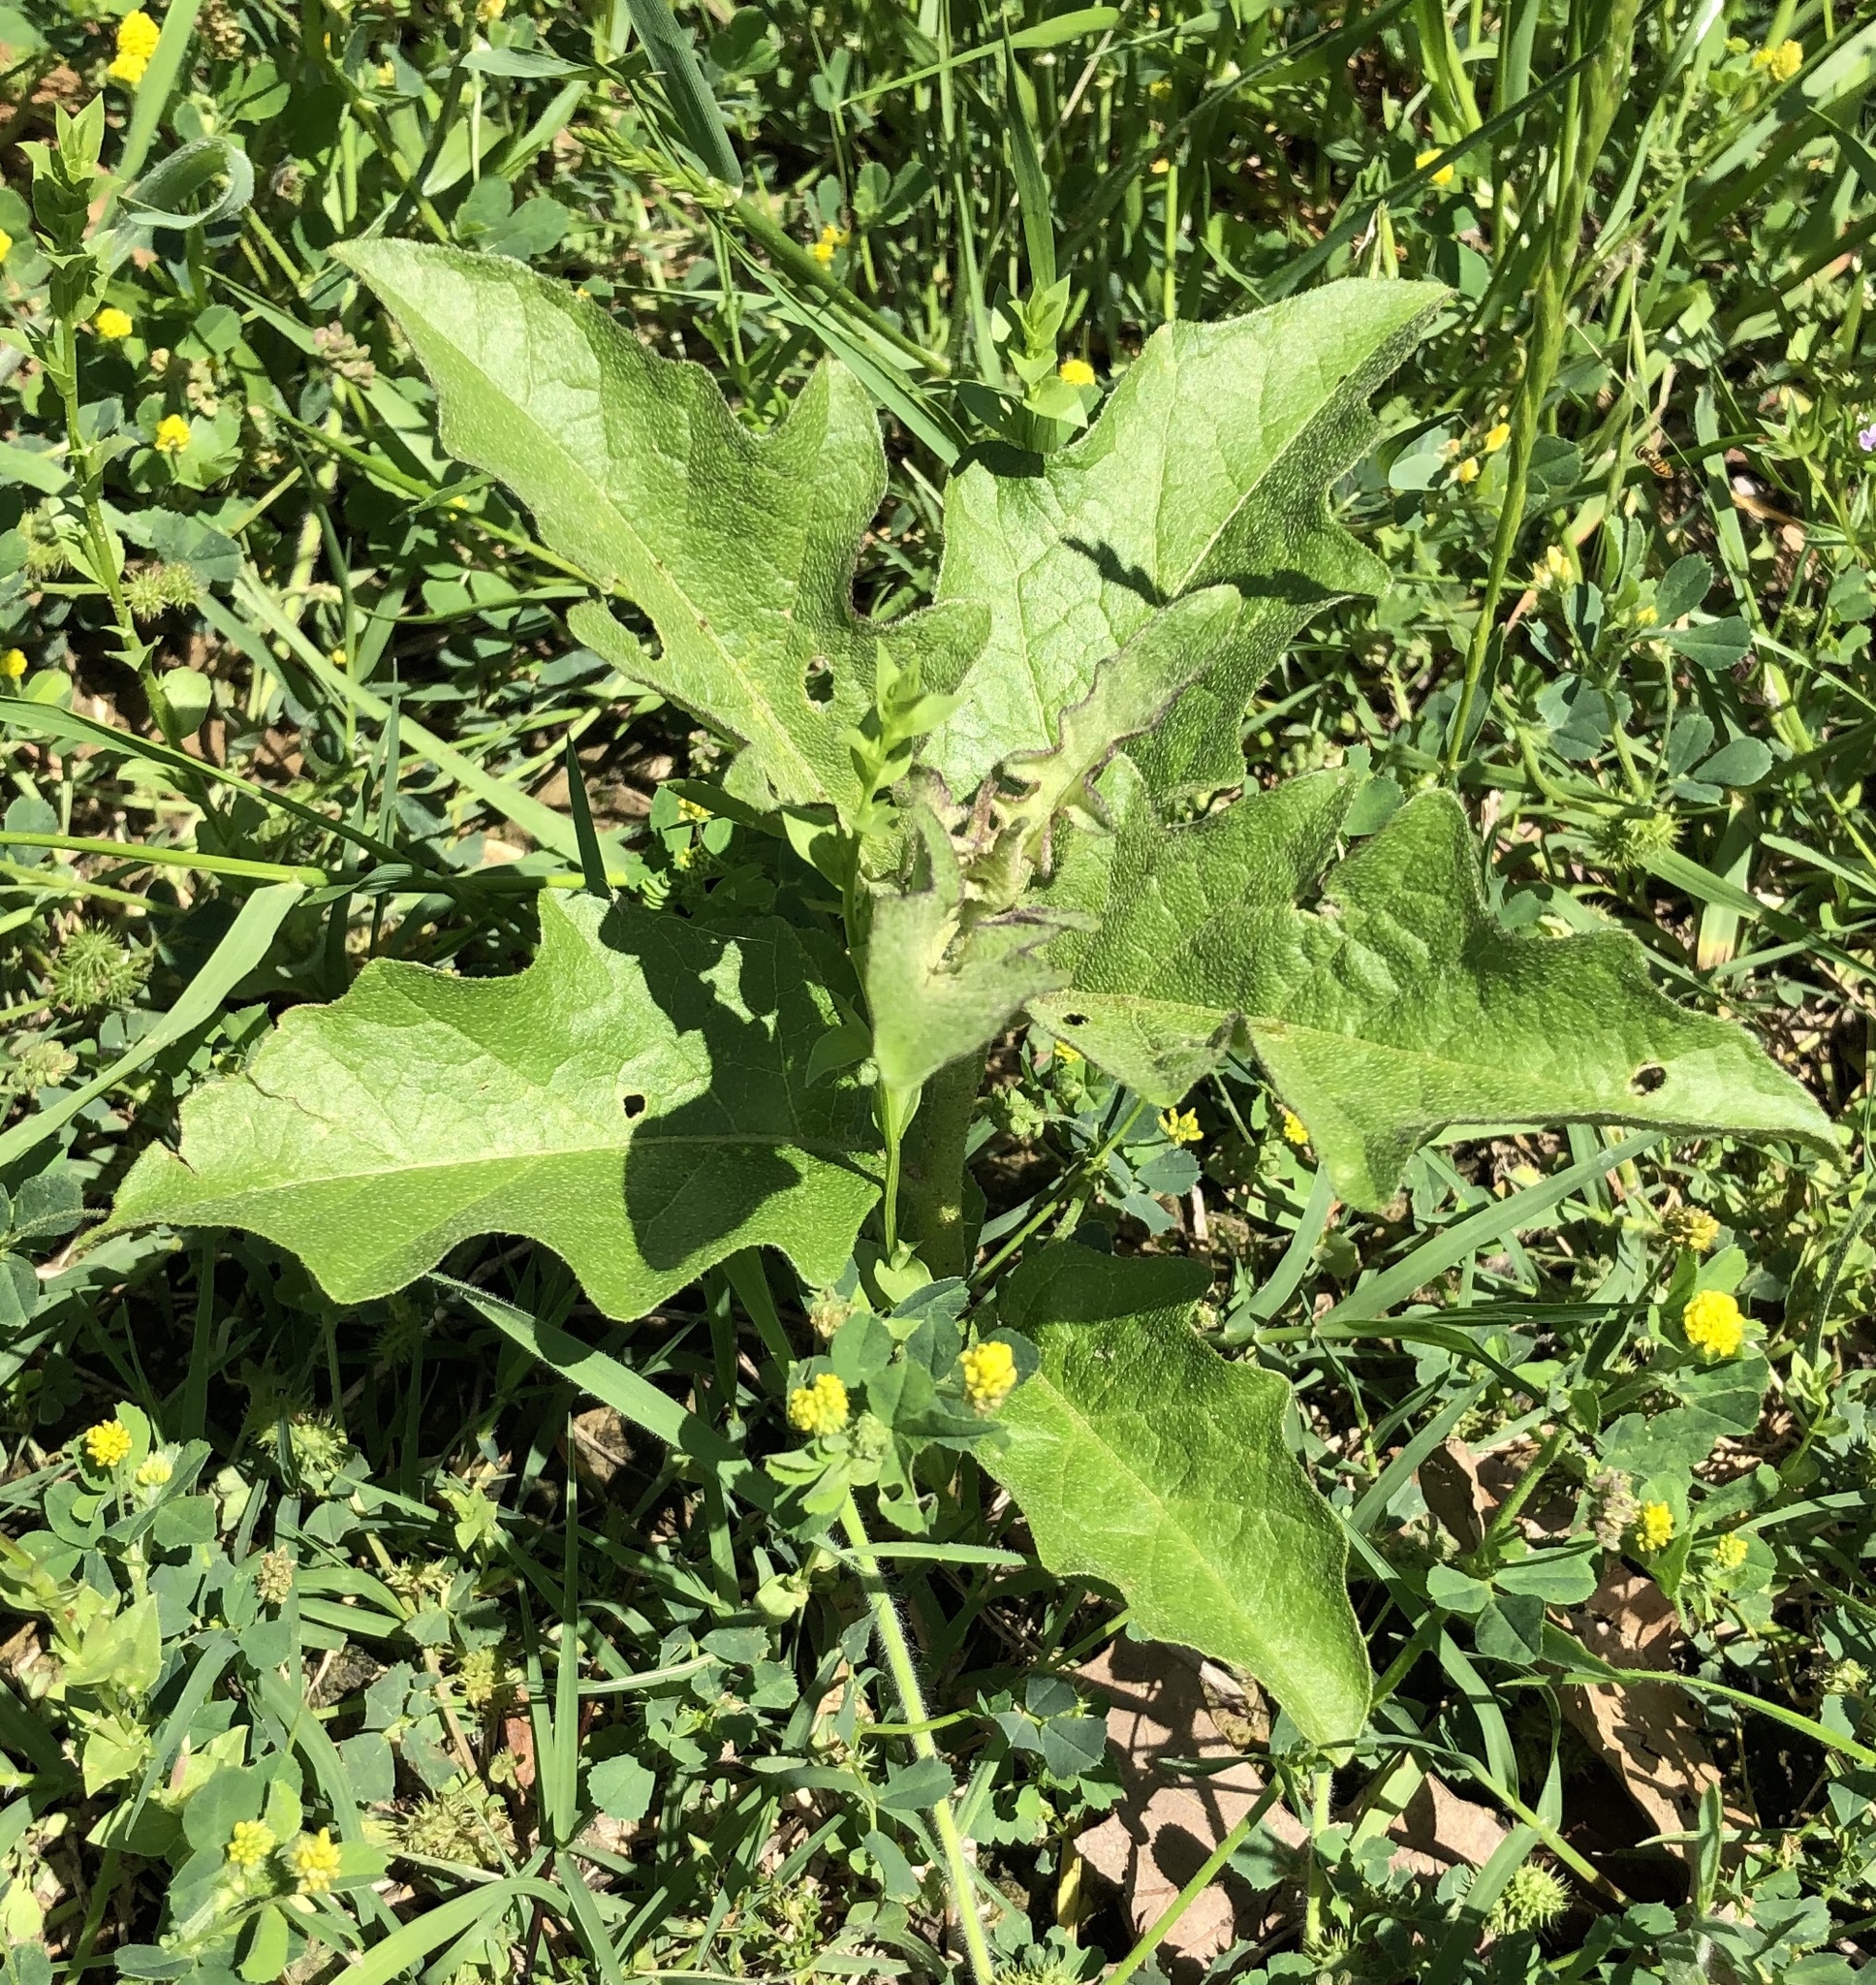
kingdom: Plantae
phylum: Tracheophyta
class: Magnoliopsida
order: Solanales
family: Solanaceae
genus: Solanum
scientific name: Solanum dimidiatum
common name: Carolina horse-nettle
